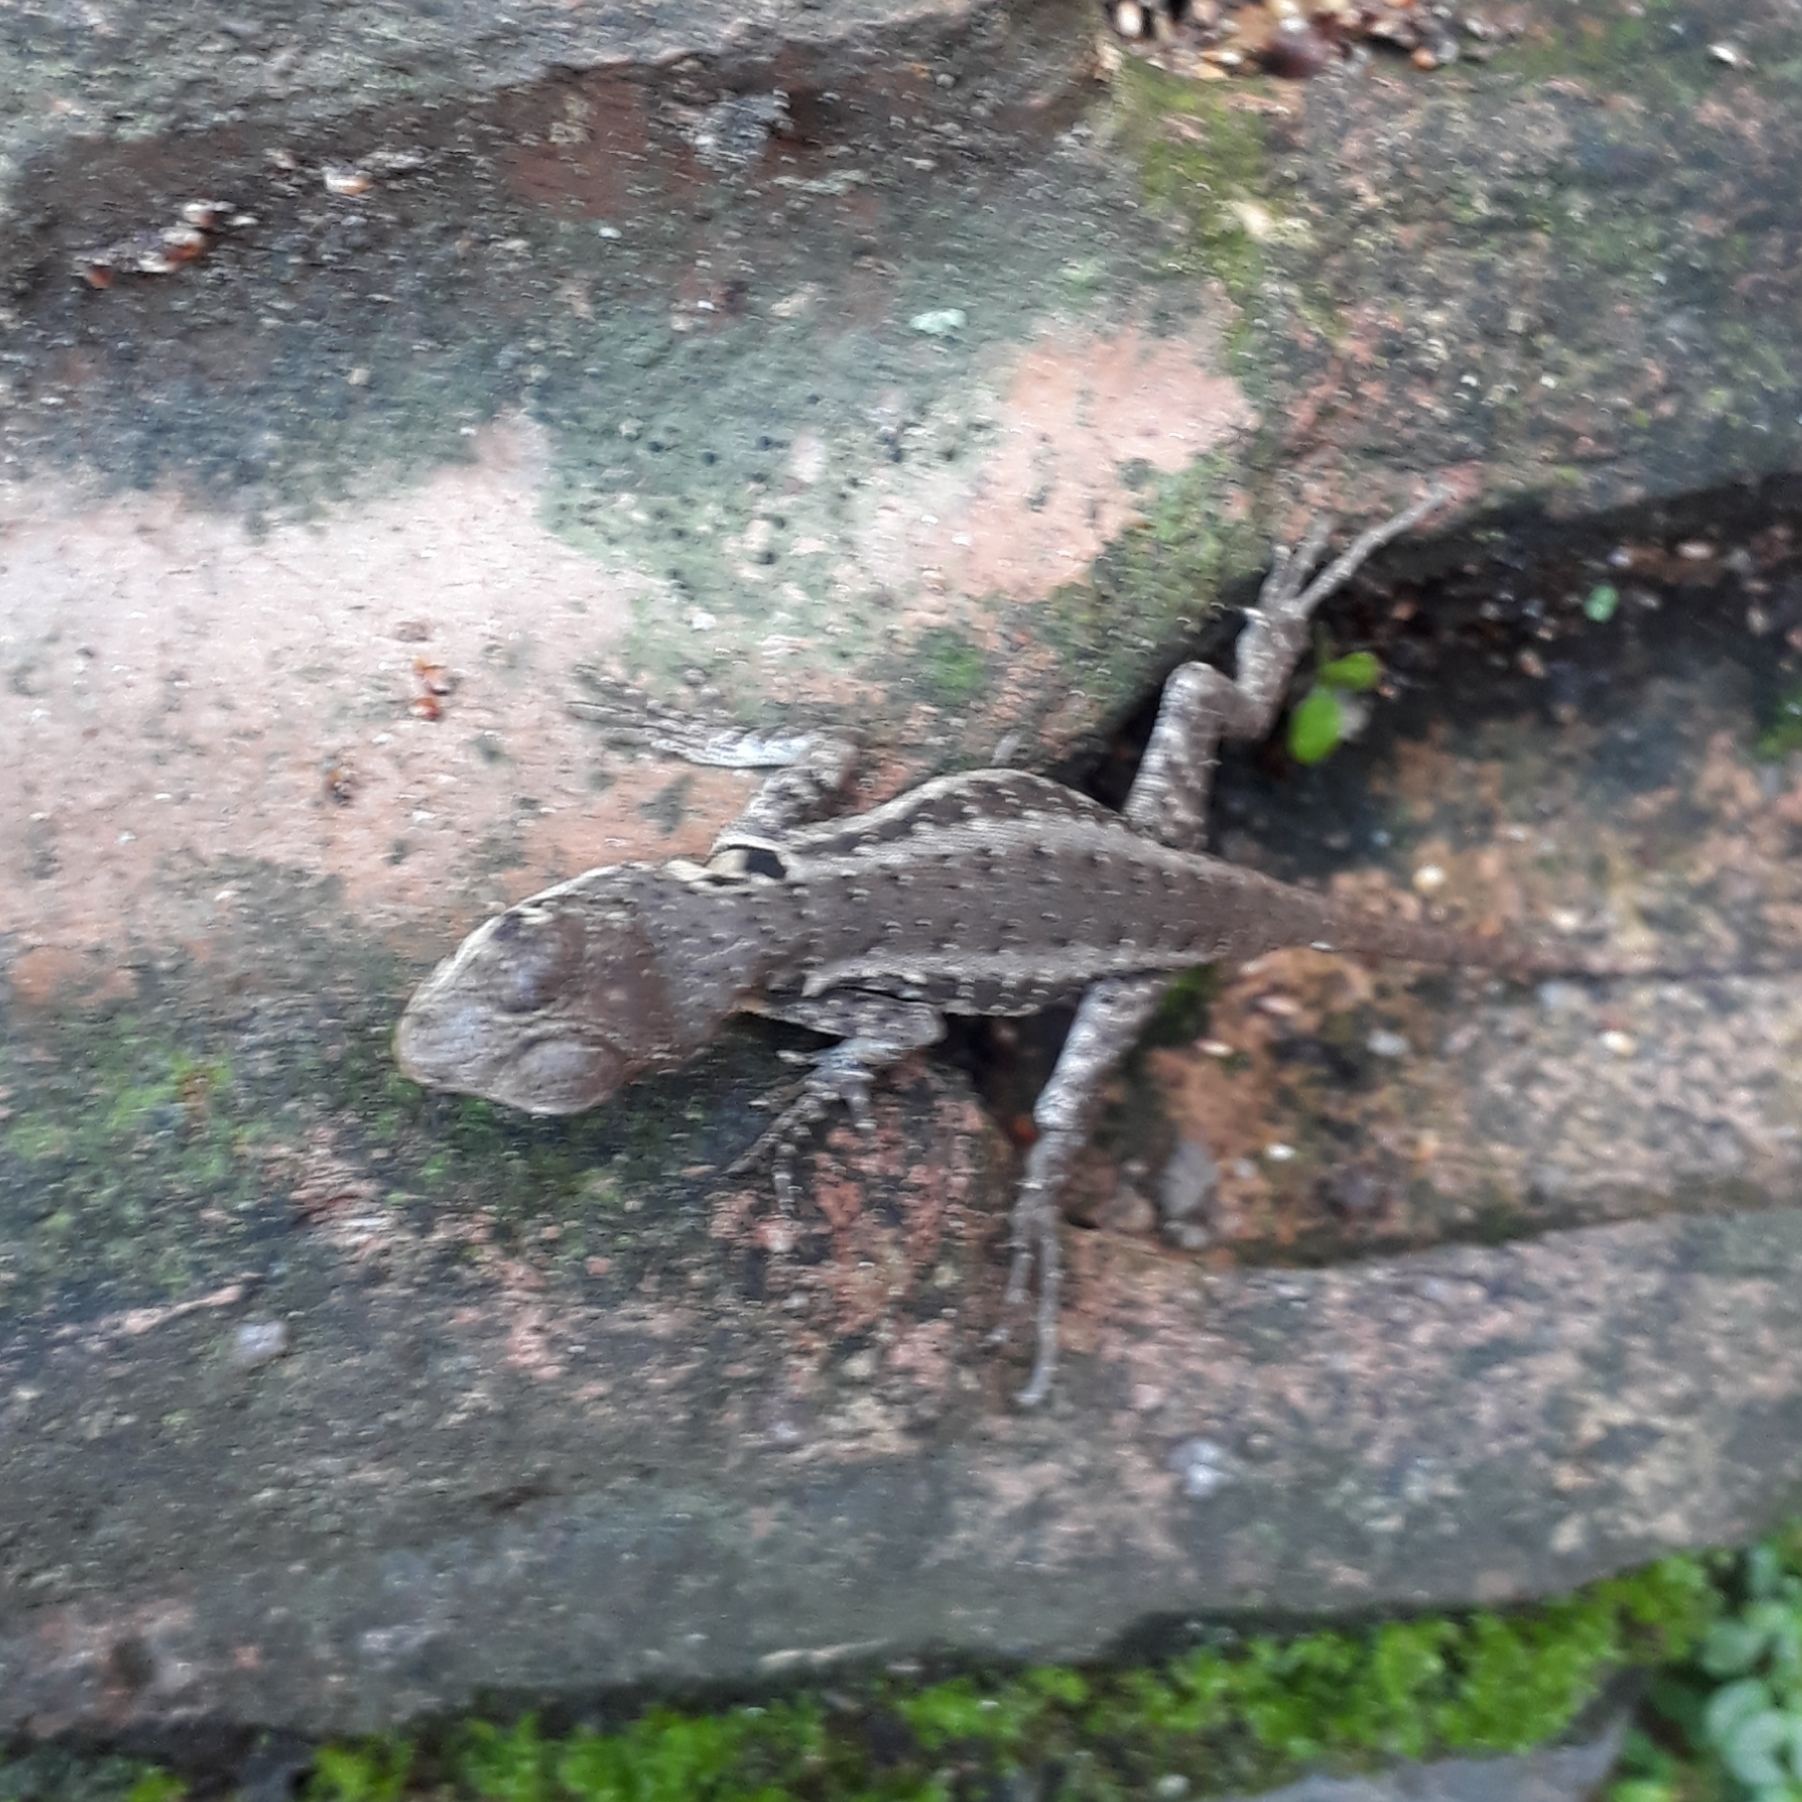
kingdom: Animalia
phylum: Chordata
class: Squamata
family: Tropiduridae
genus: Tropidurus
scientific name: Tropidurus torquatus
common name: Amazon lava lizard
